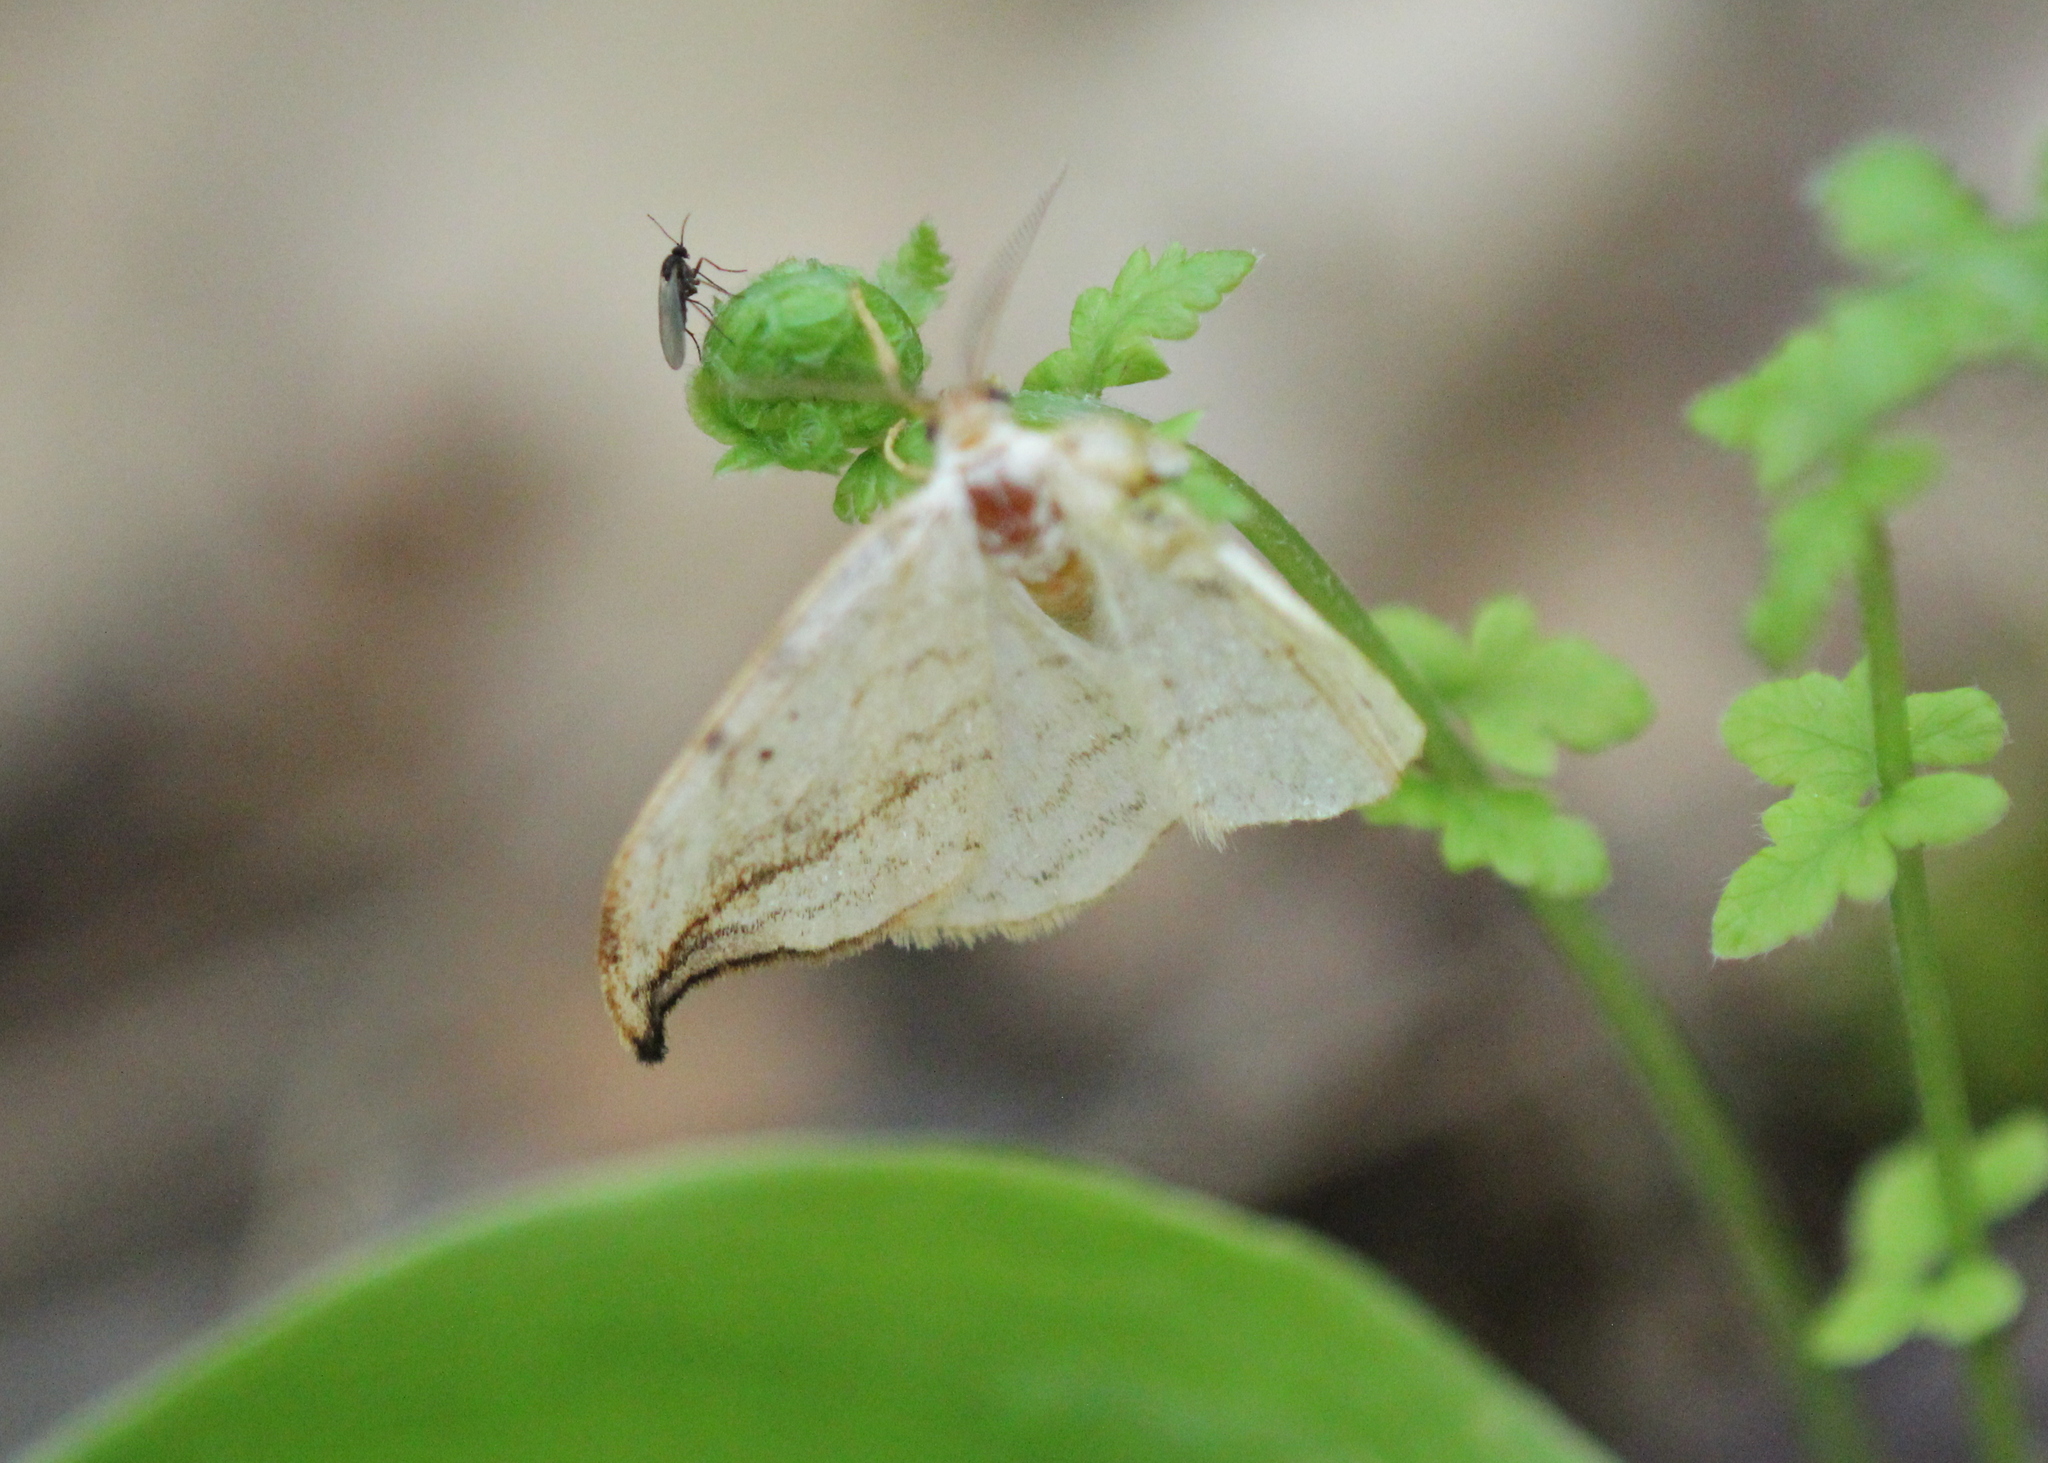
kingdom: Animalia
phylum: Arthropoda
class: Insecta
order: Lepidoptera
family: Drepanidae
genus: Drepana
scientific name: Drepana arcuata
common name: Arched hooktip moth
